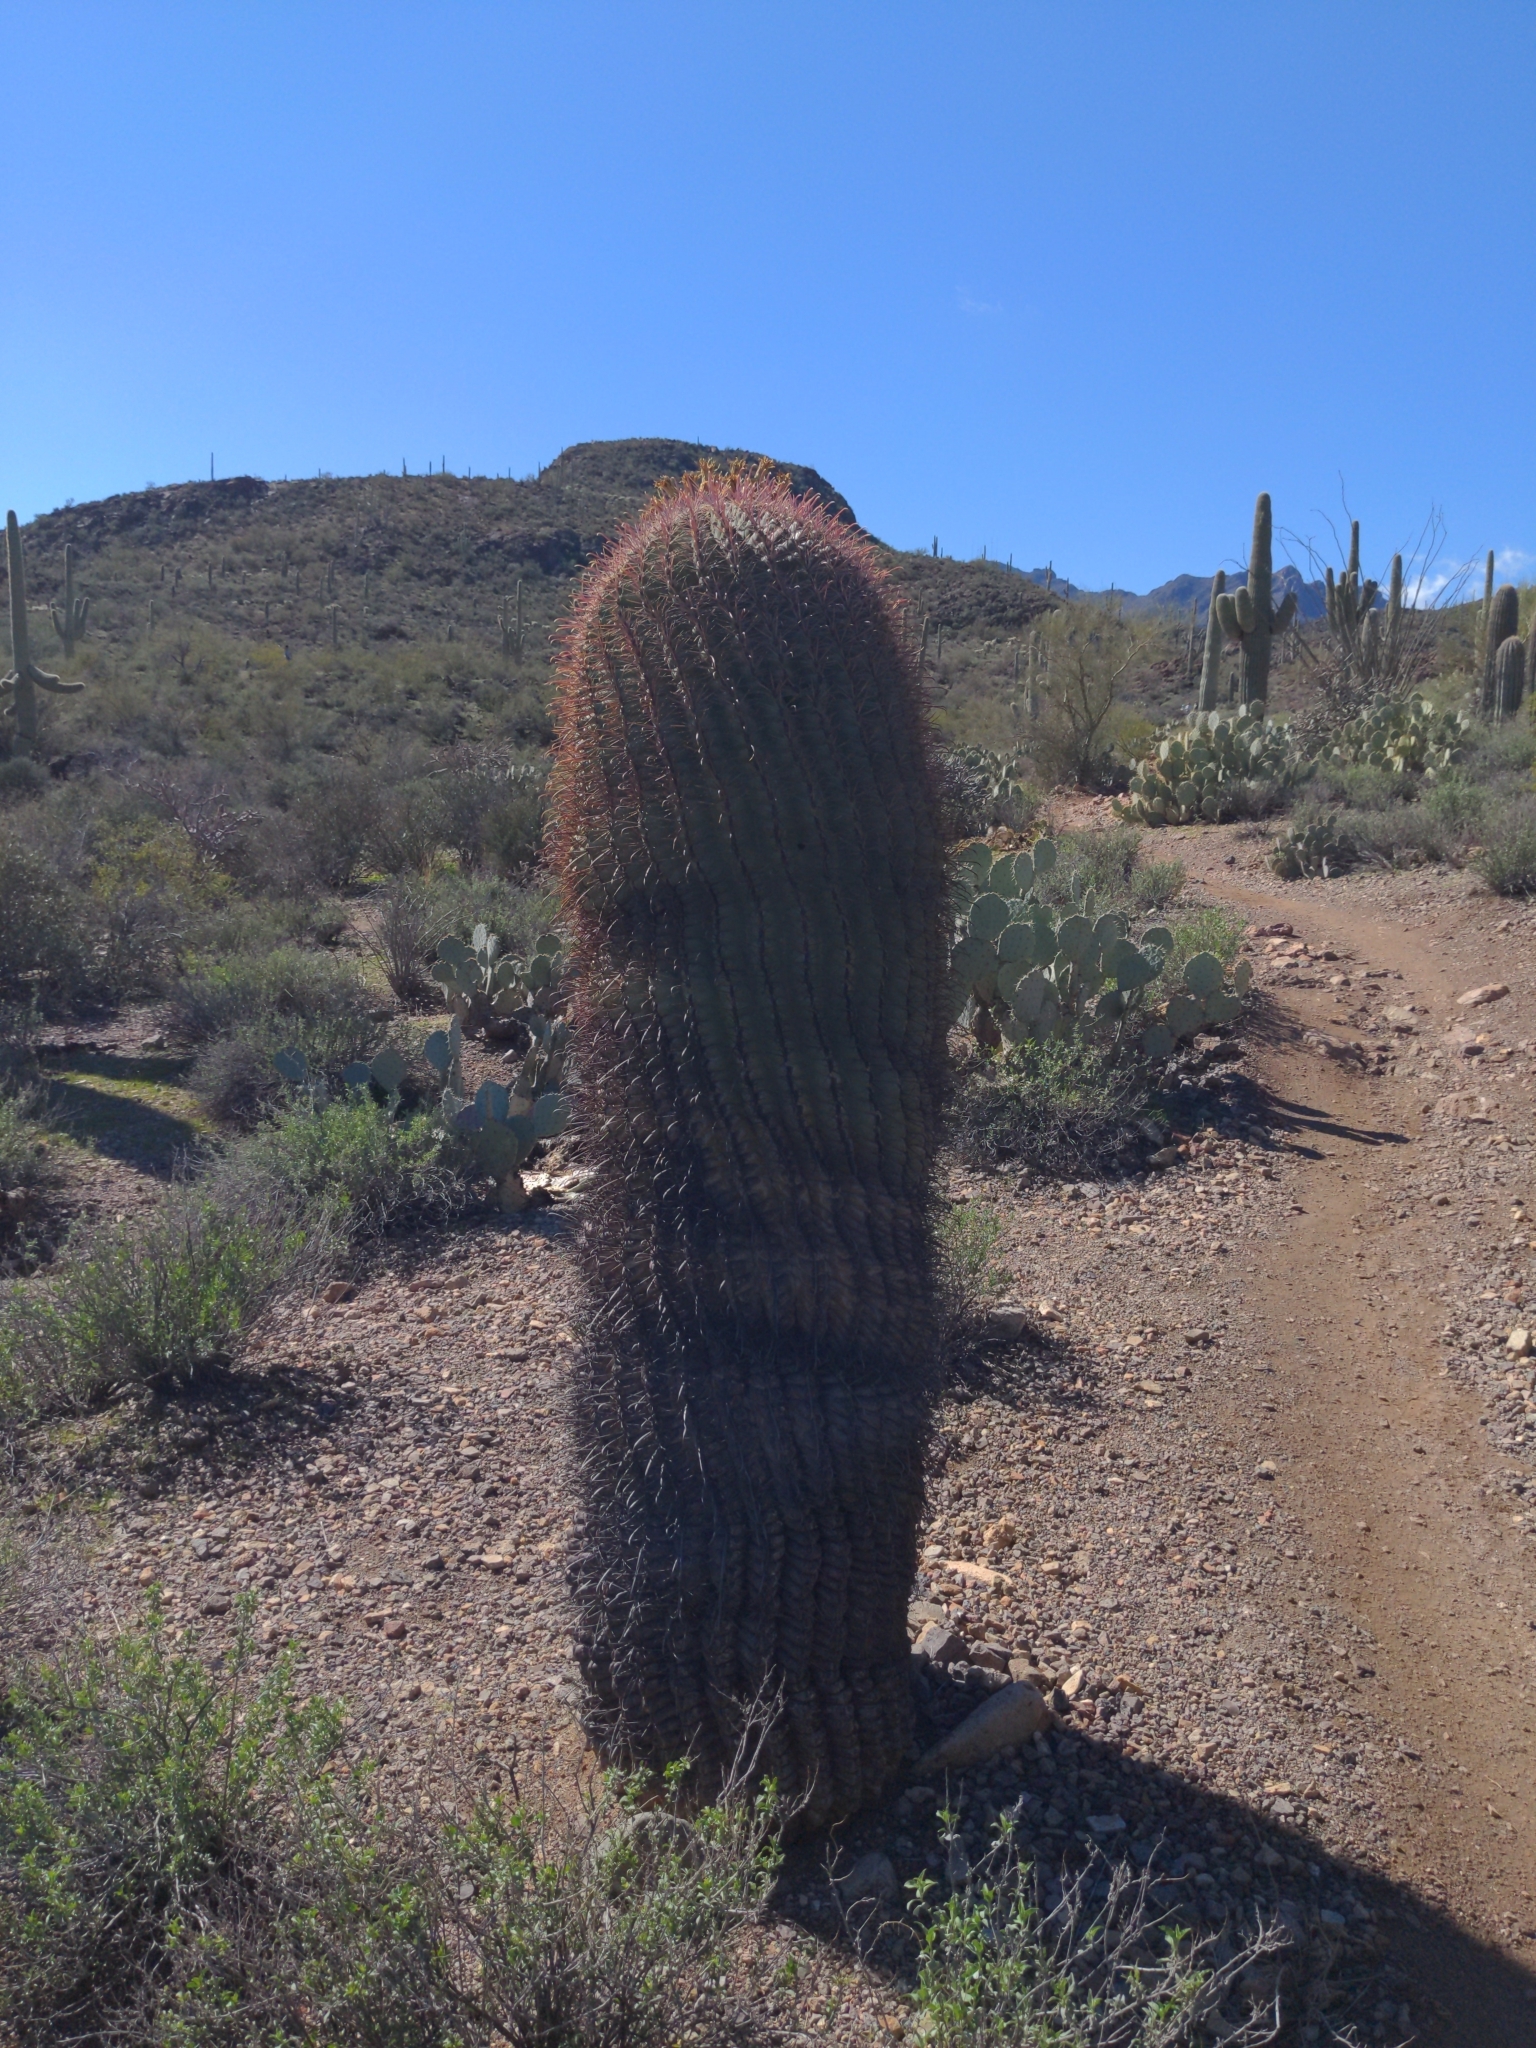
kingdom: Plantae
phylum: Tracheophyta
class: Magnoliopsida
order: Caryophyllales
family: Cactaceae
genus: Ferocactus
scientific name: Ferocactus cylindraceus
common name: California barrel cactus
